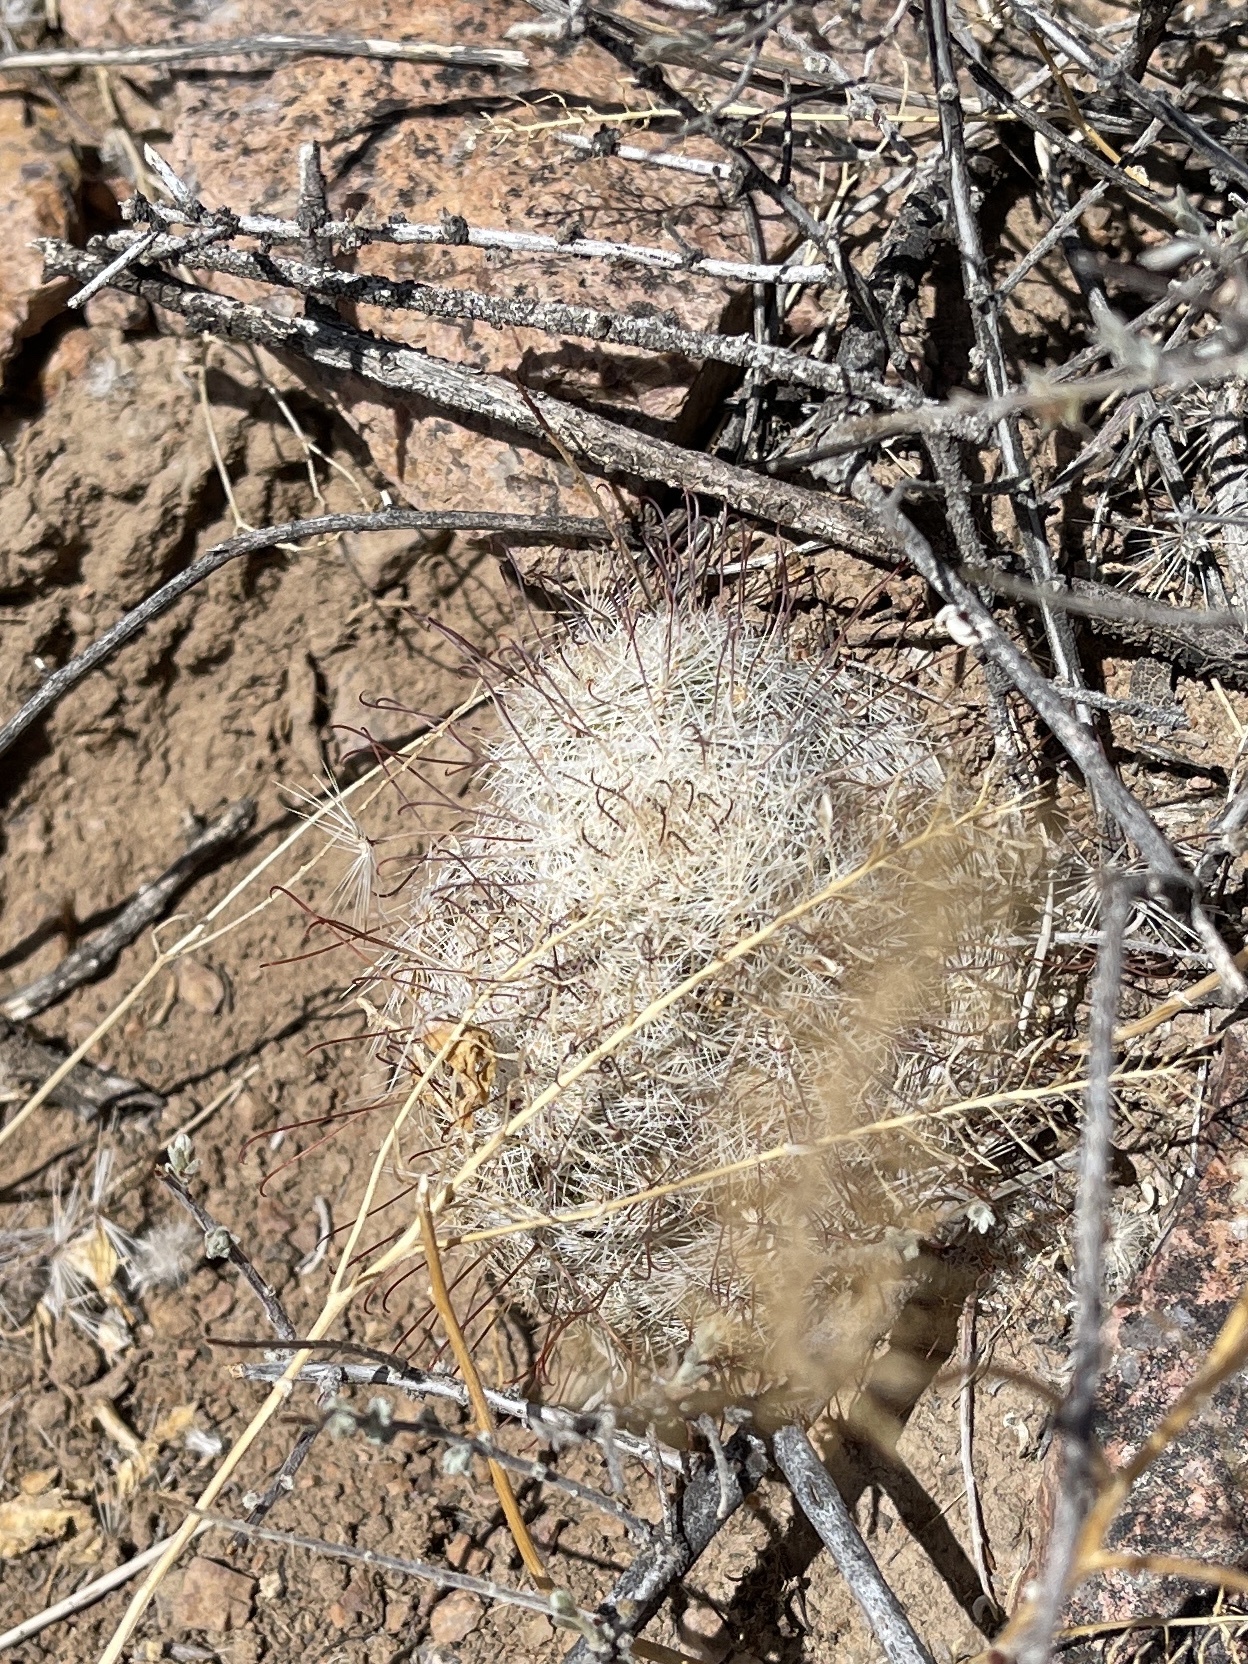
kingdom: Plantae
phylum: Tracheophyta
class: Magnoliopsida
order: Caryophyllales
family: Cactaceae
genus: Cochemiea
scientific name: Cochemiea grahamii
